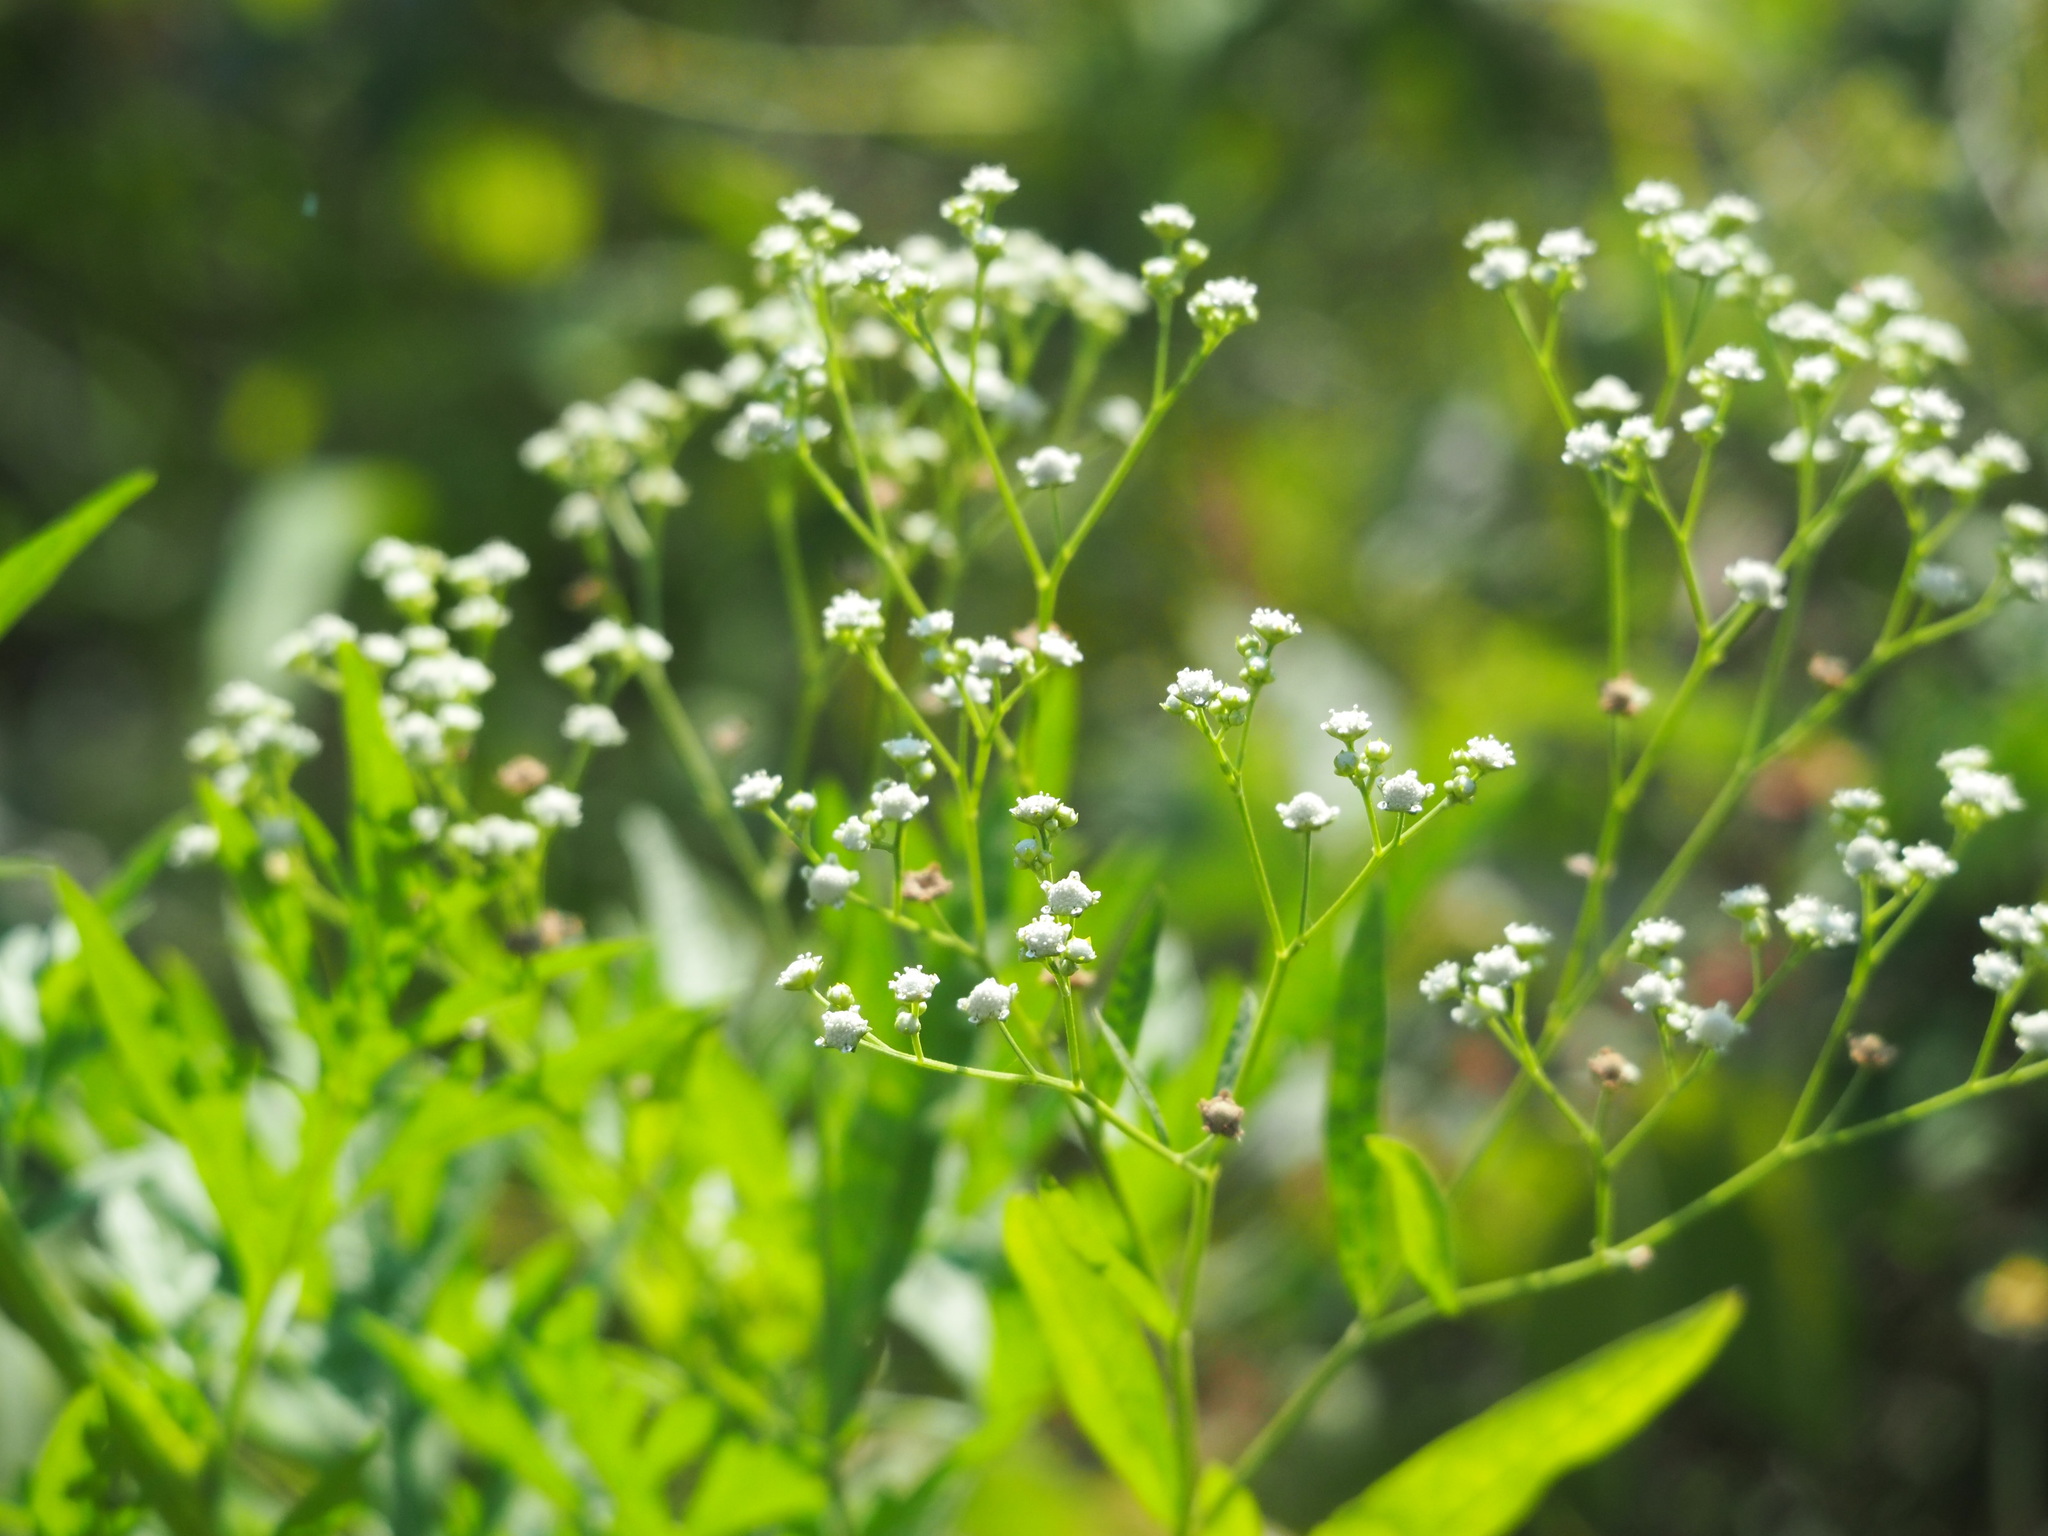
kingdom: Plantae
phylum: Tracheophyta
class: Magnoliopsida
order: Asterales
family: Asteraceae
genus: Parthenium
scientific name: Parthenium hysterophorus
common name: Santa maria feverfew
